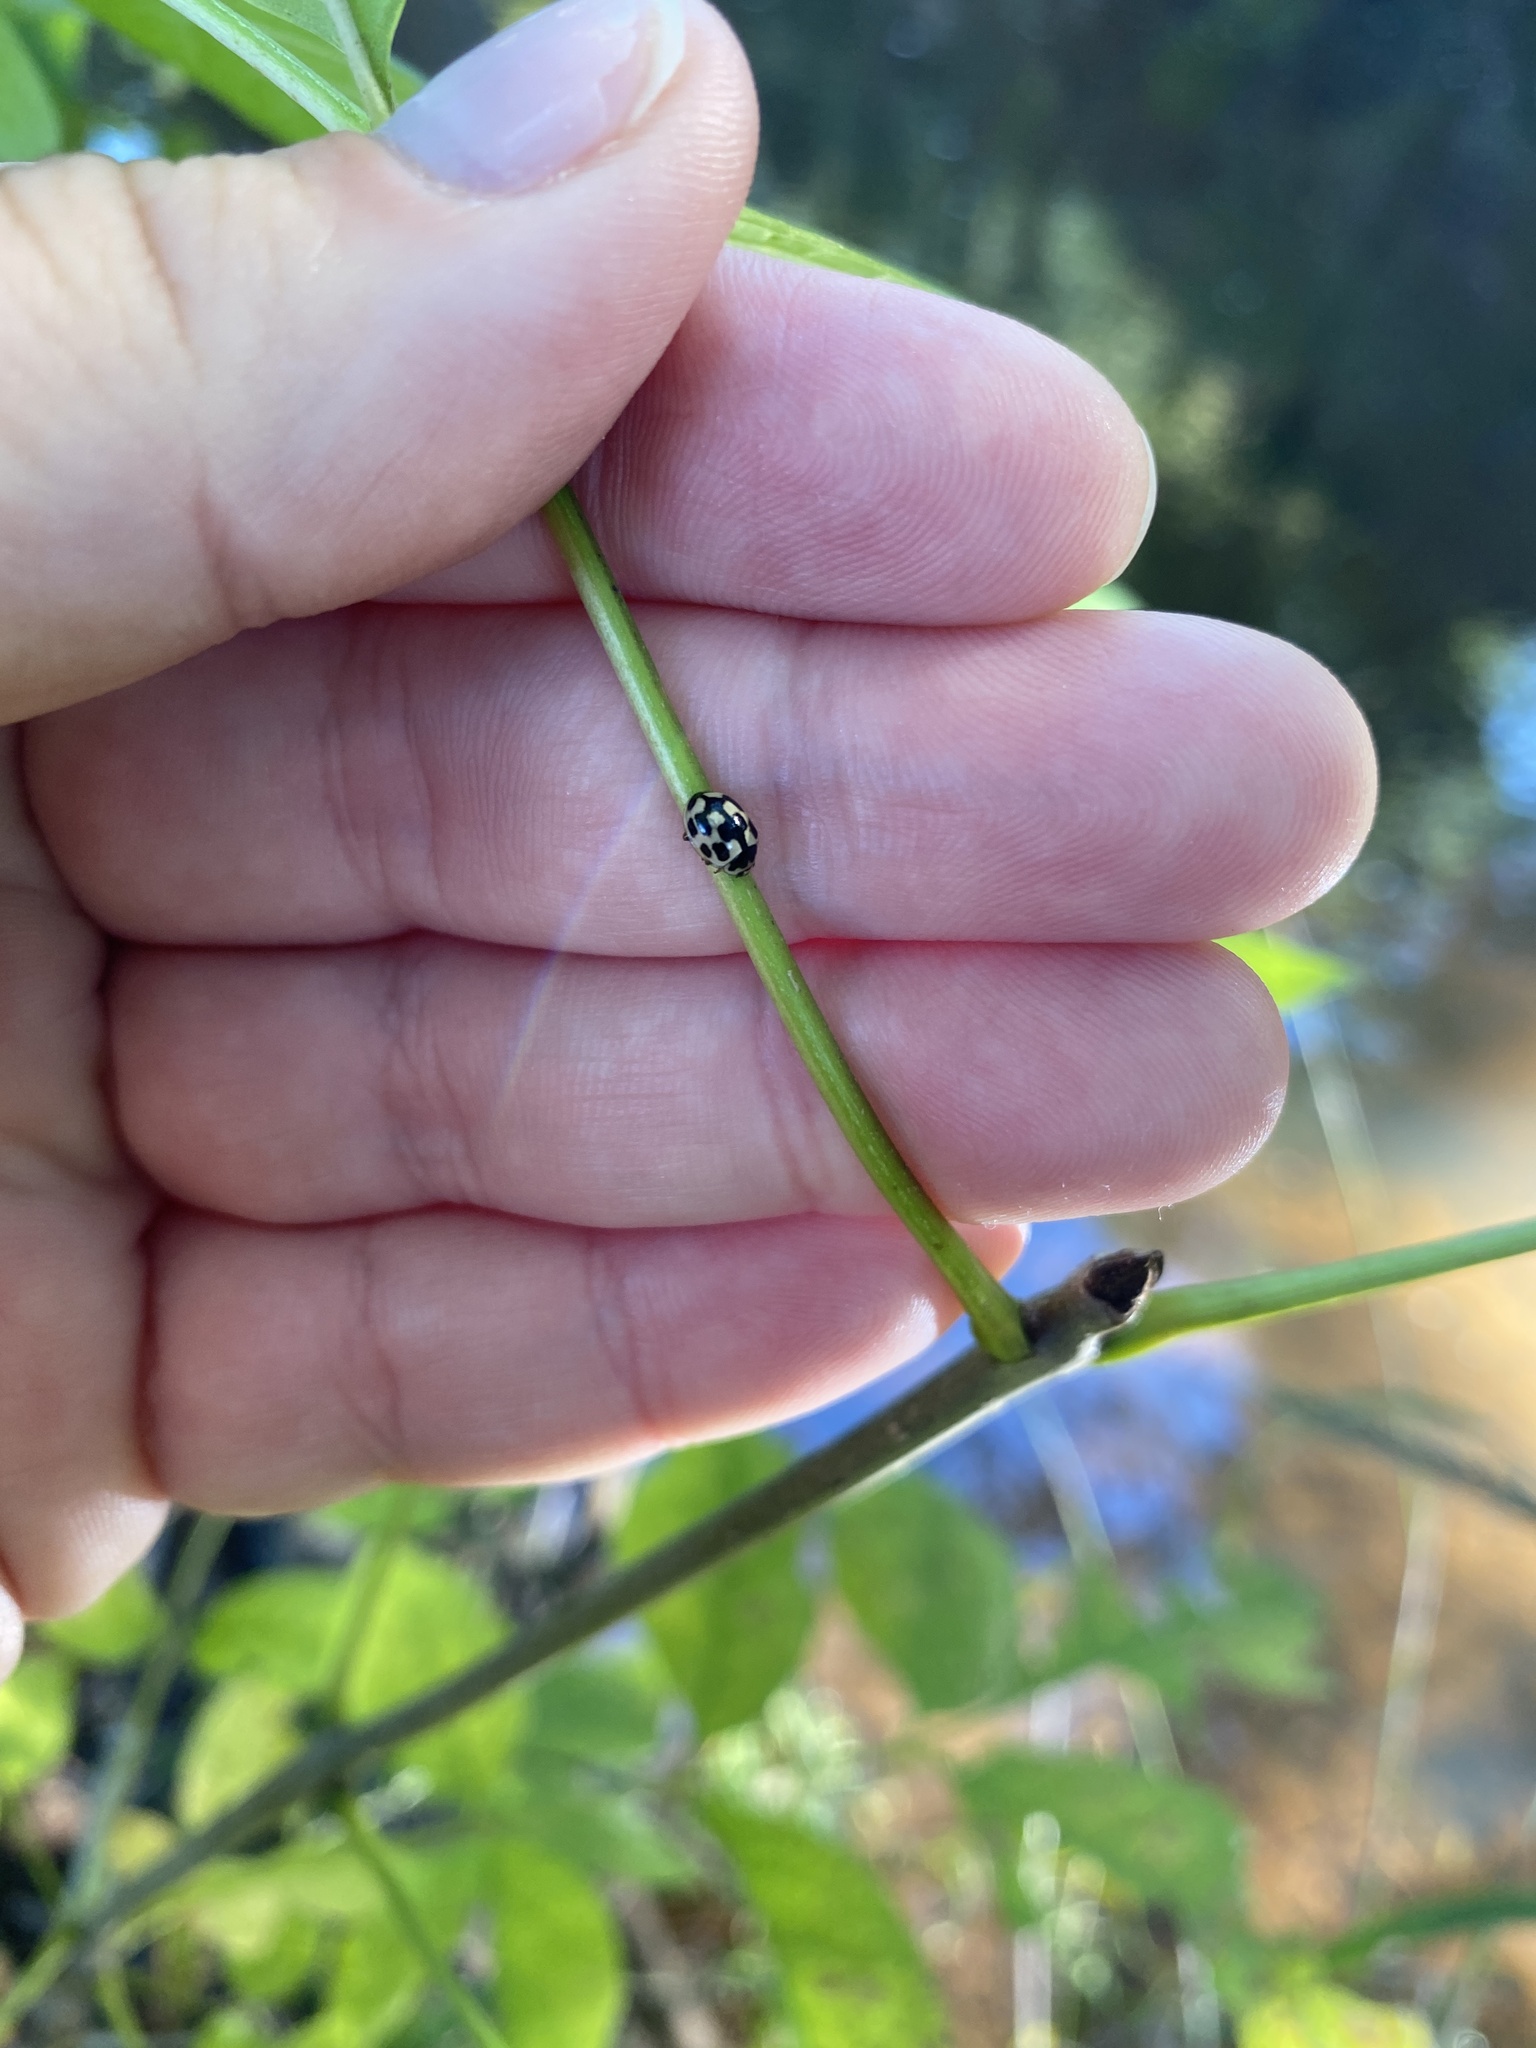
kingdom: Animalia
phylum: Arthropoda
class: Insecta
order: Coleoptera
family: Coccinellidae
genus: Propylaea
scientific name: Propylaea quatuordecimpunctata
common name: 14-spotted ladybird beetle
